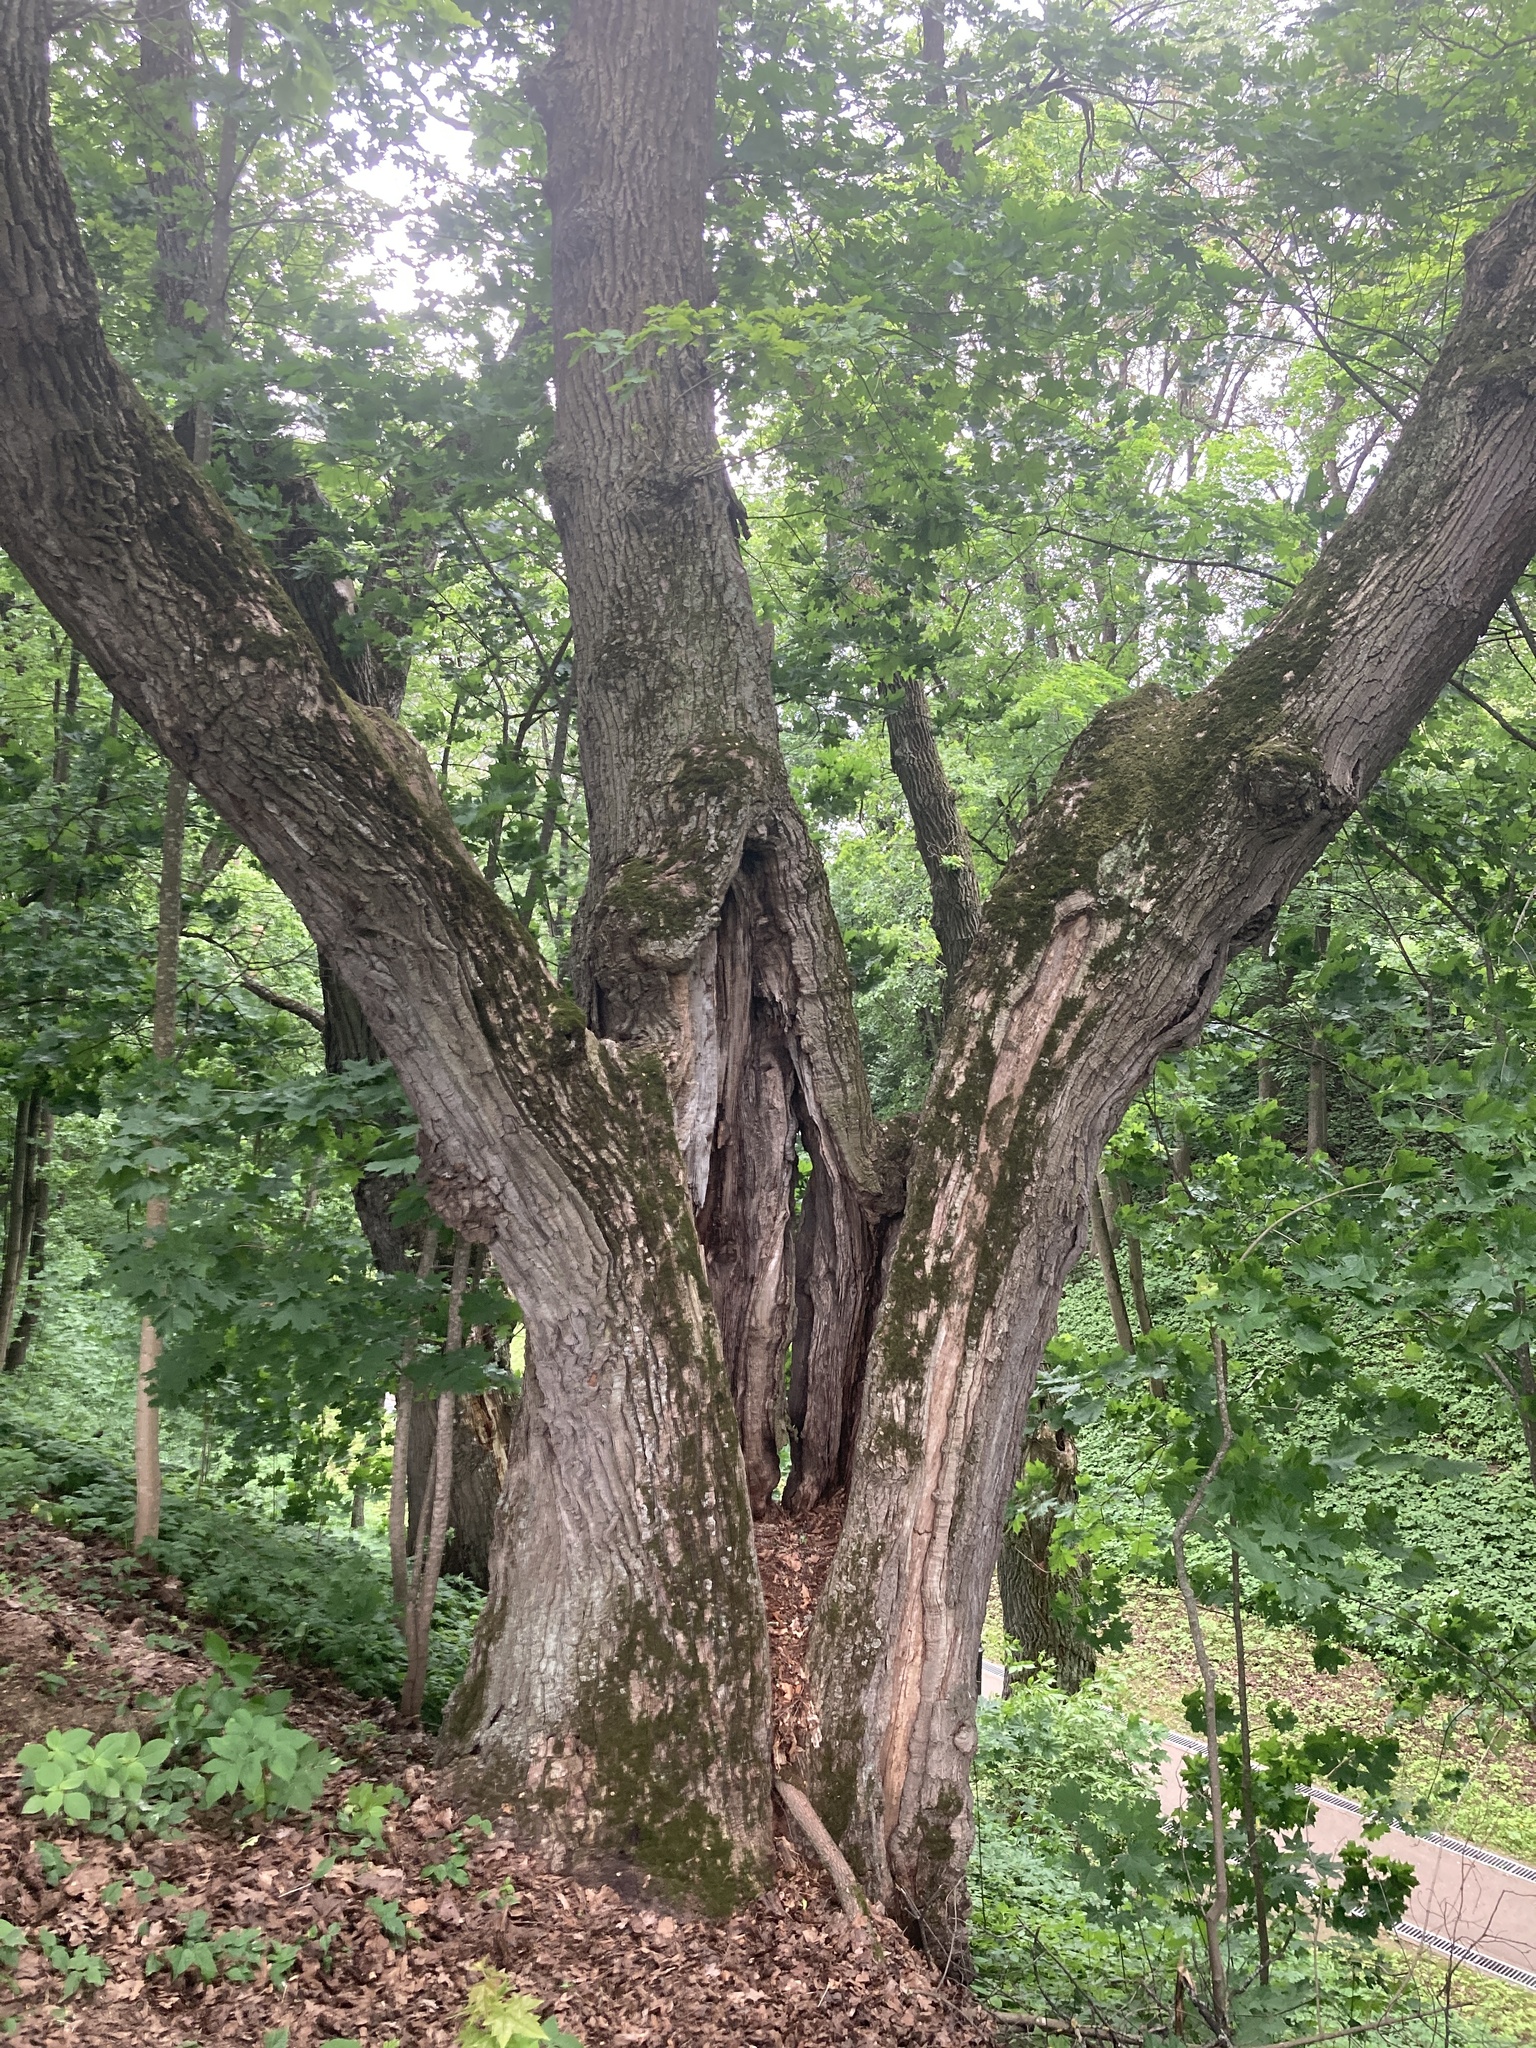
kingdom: Plantae
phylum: Tracheophyta
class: Magnoliopsida
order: Fagales
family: Fagaceae
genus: Quercus
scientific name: Quercus robur
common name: Pedunculate oak
